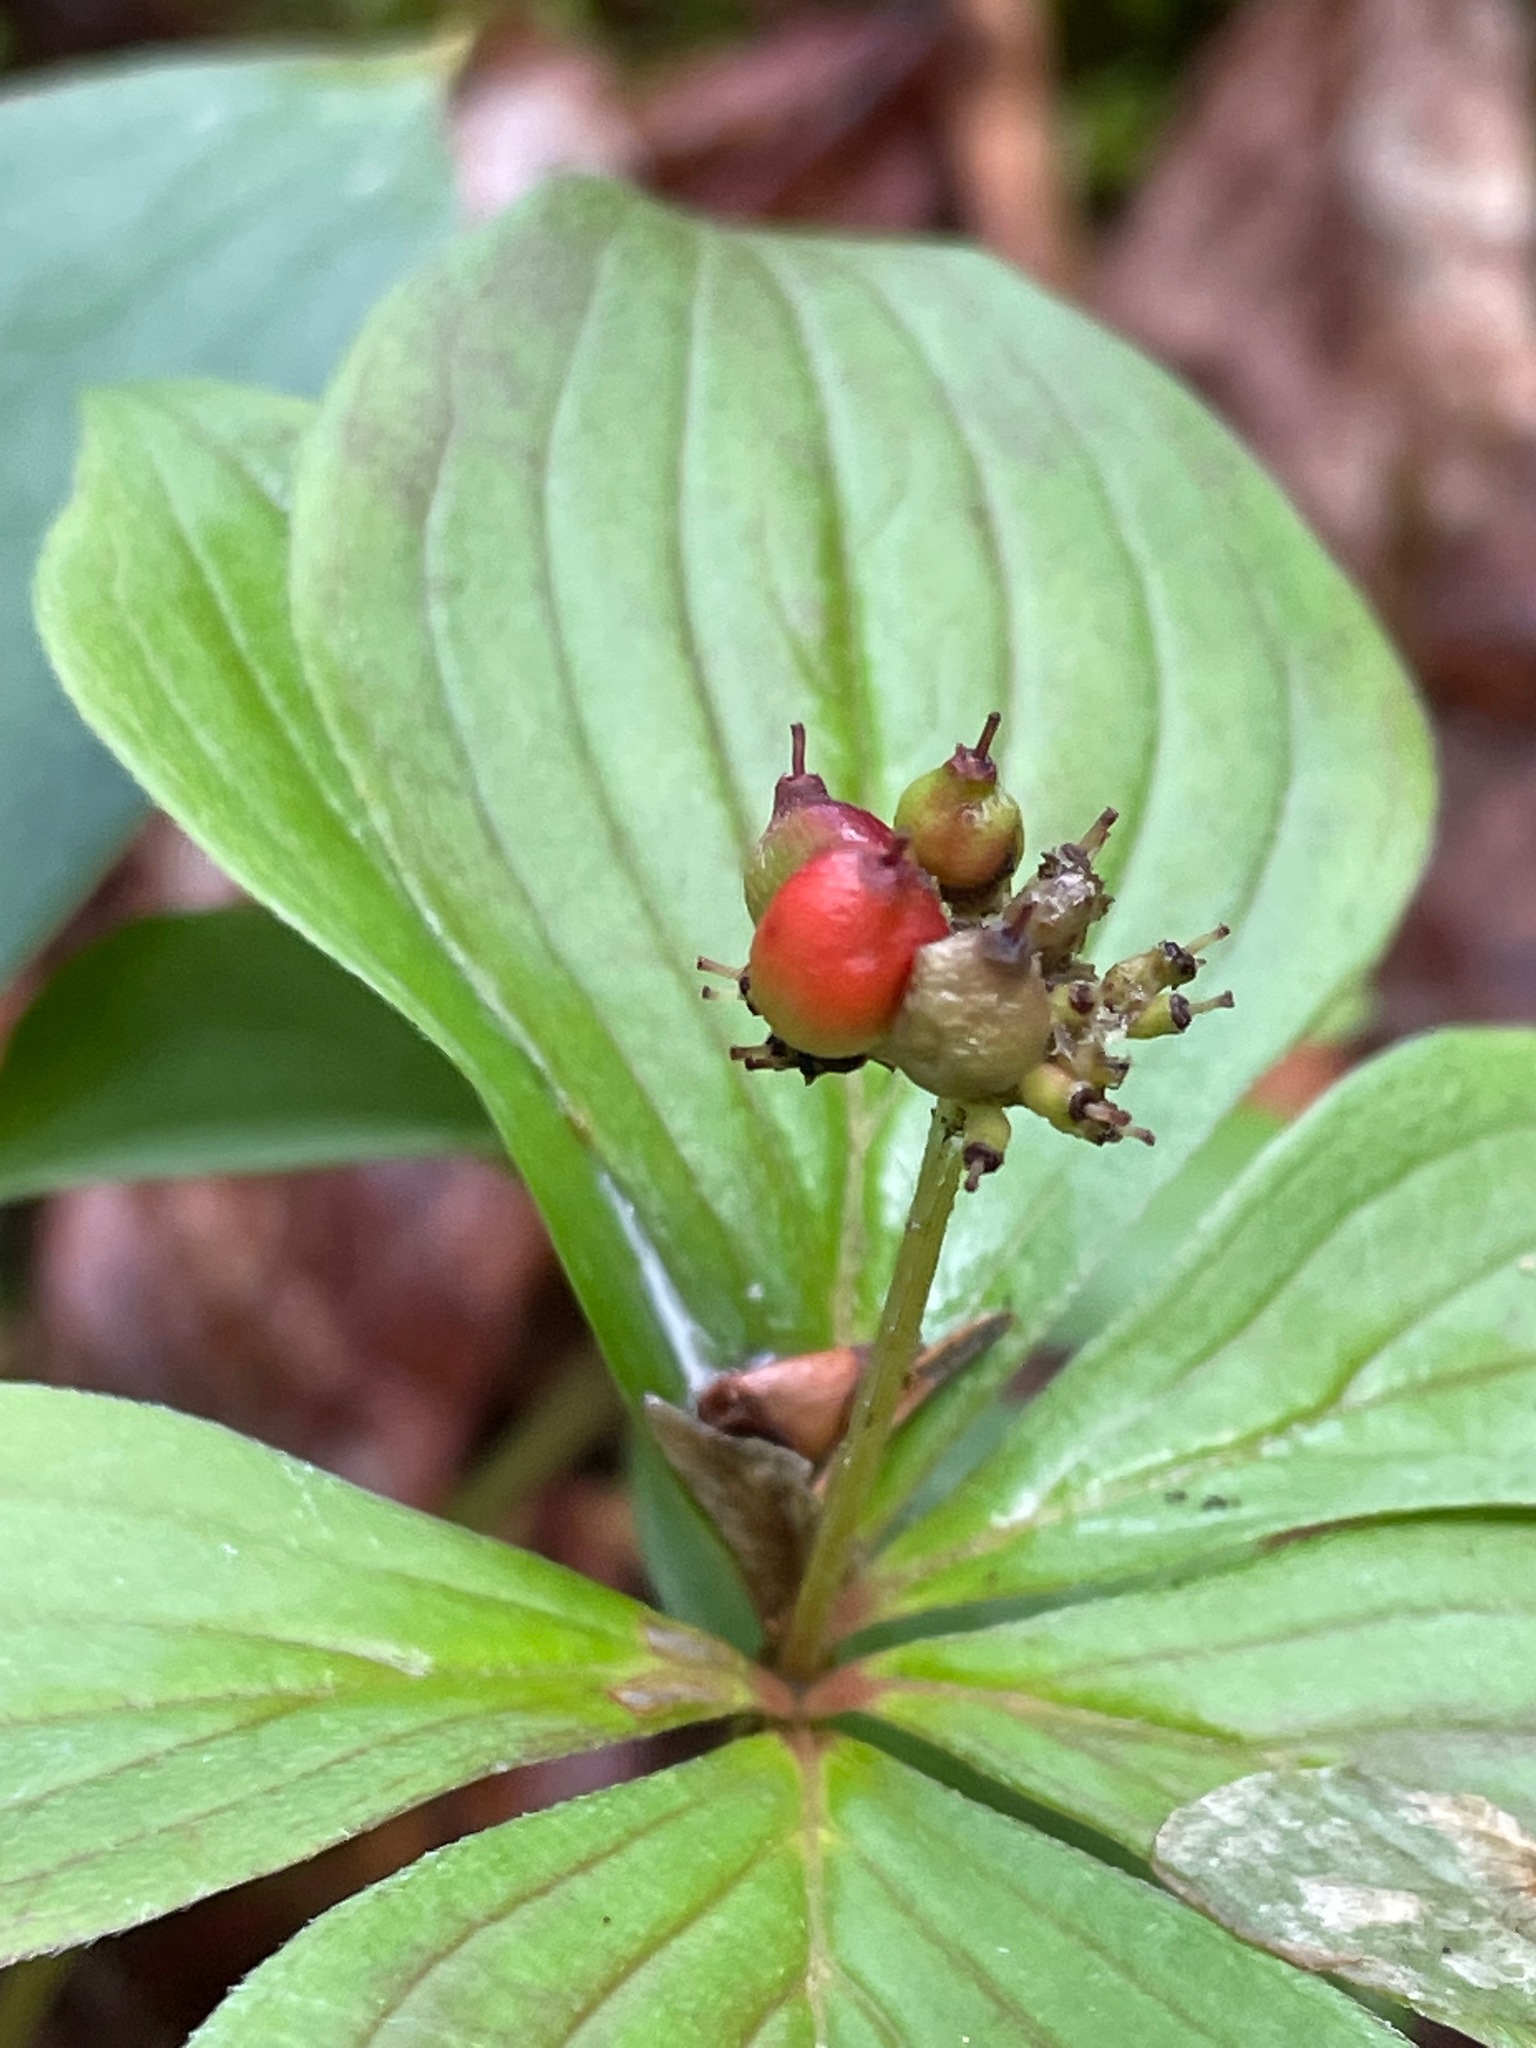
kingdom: Plantae
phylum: Tracheophyta
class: Magnoliopsida
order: Cornales
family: Cornaceae
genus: Cornus
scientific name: Cornus canadensis
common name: Creeping dogwood
